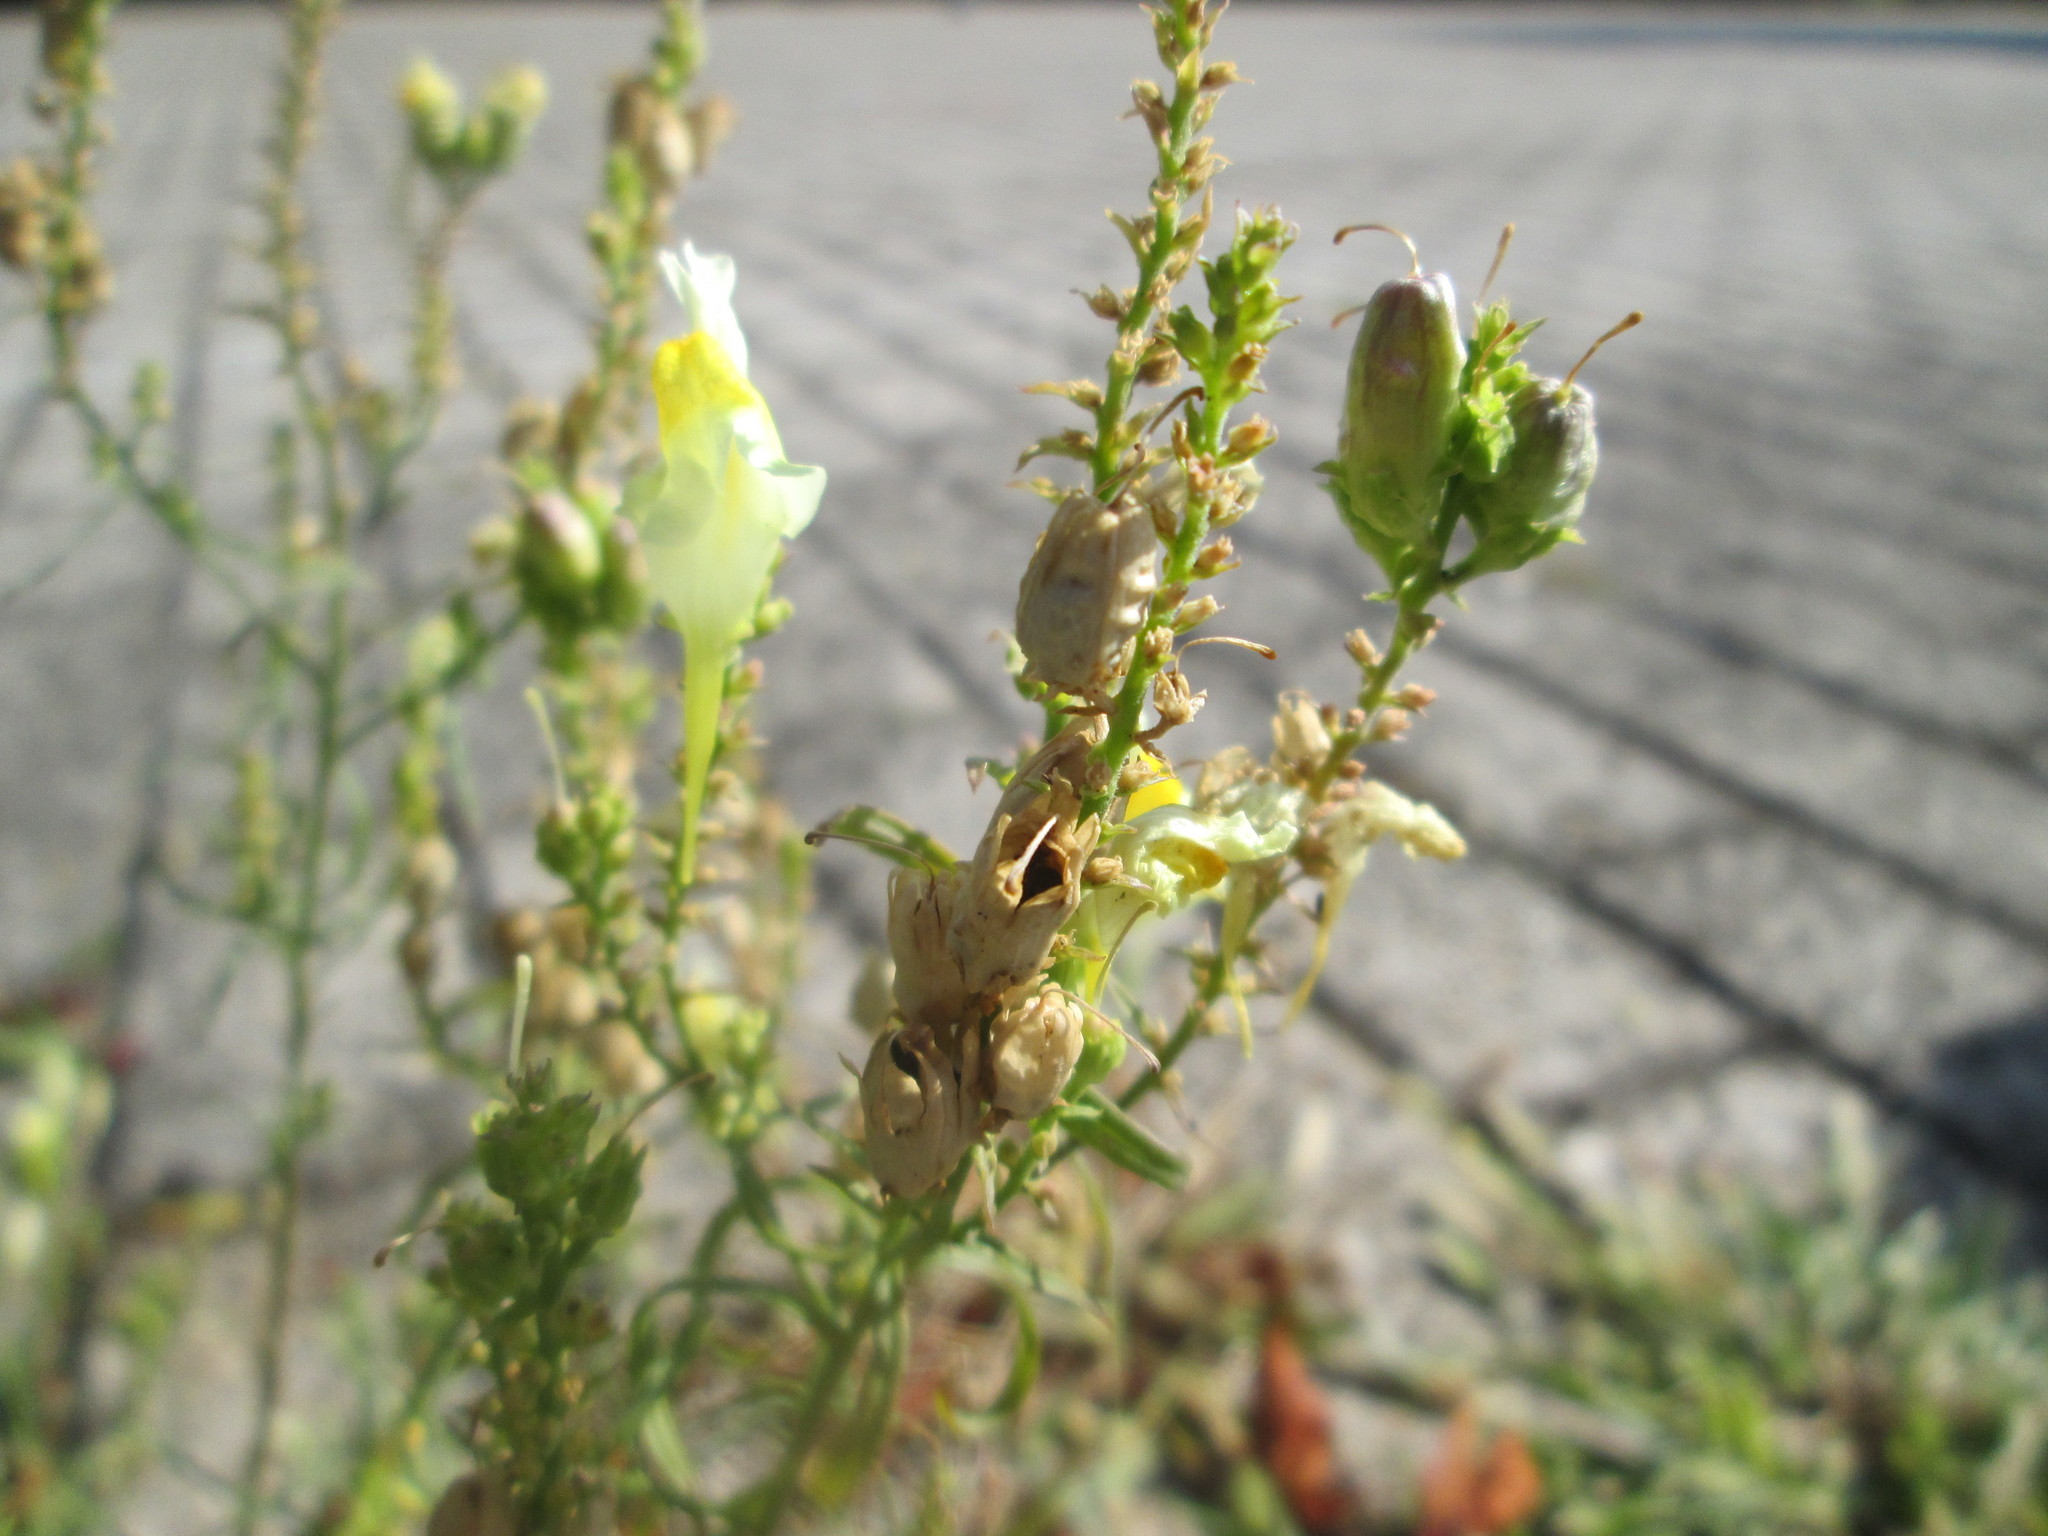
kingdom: Plantae
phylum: Tracheophyta
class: Magnoliopsida
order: Lamiales
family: Plantaginaceae
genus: Linaria
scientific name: Linaria vulgaris
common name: Butter and eggs
